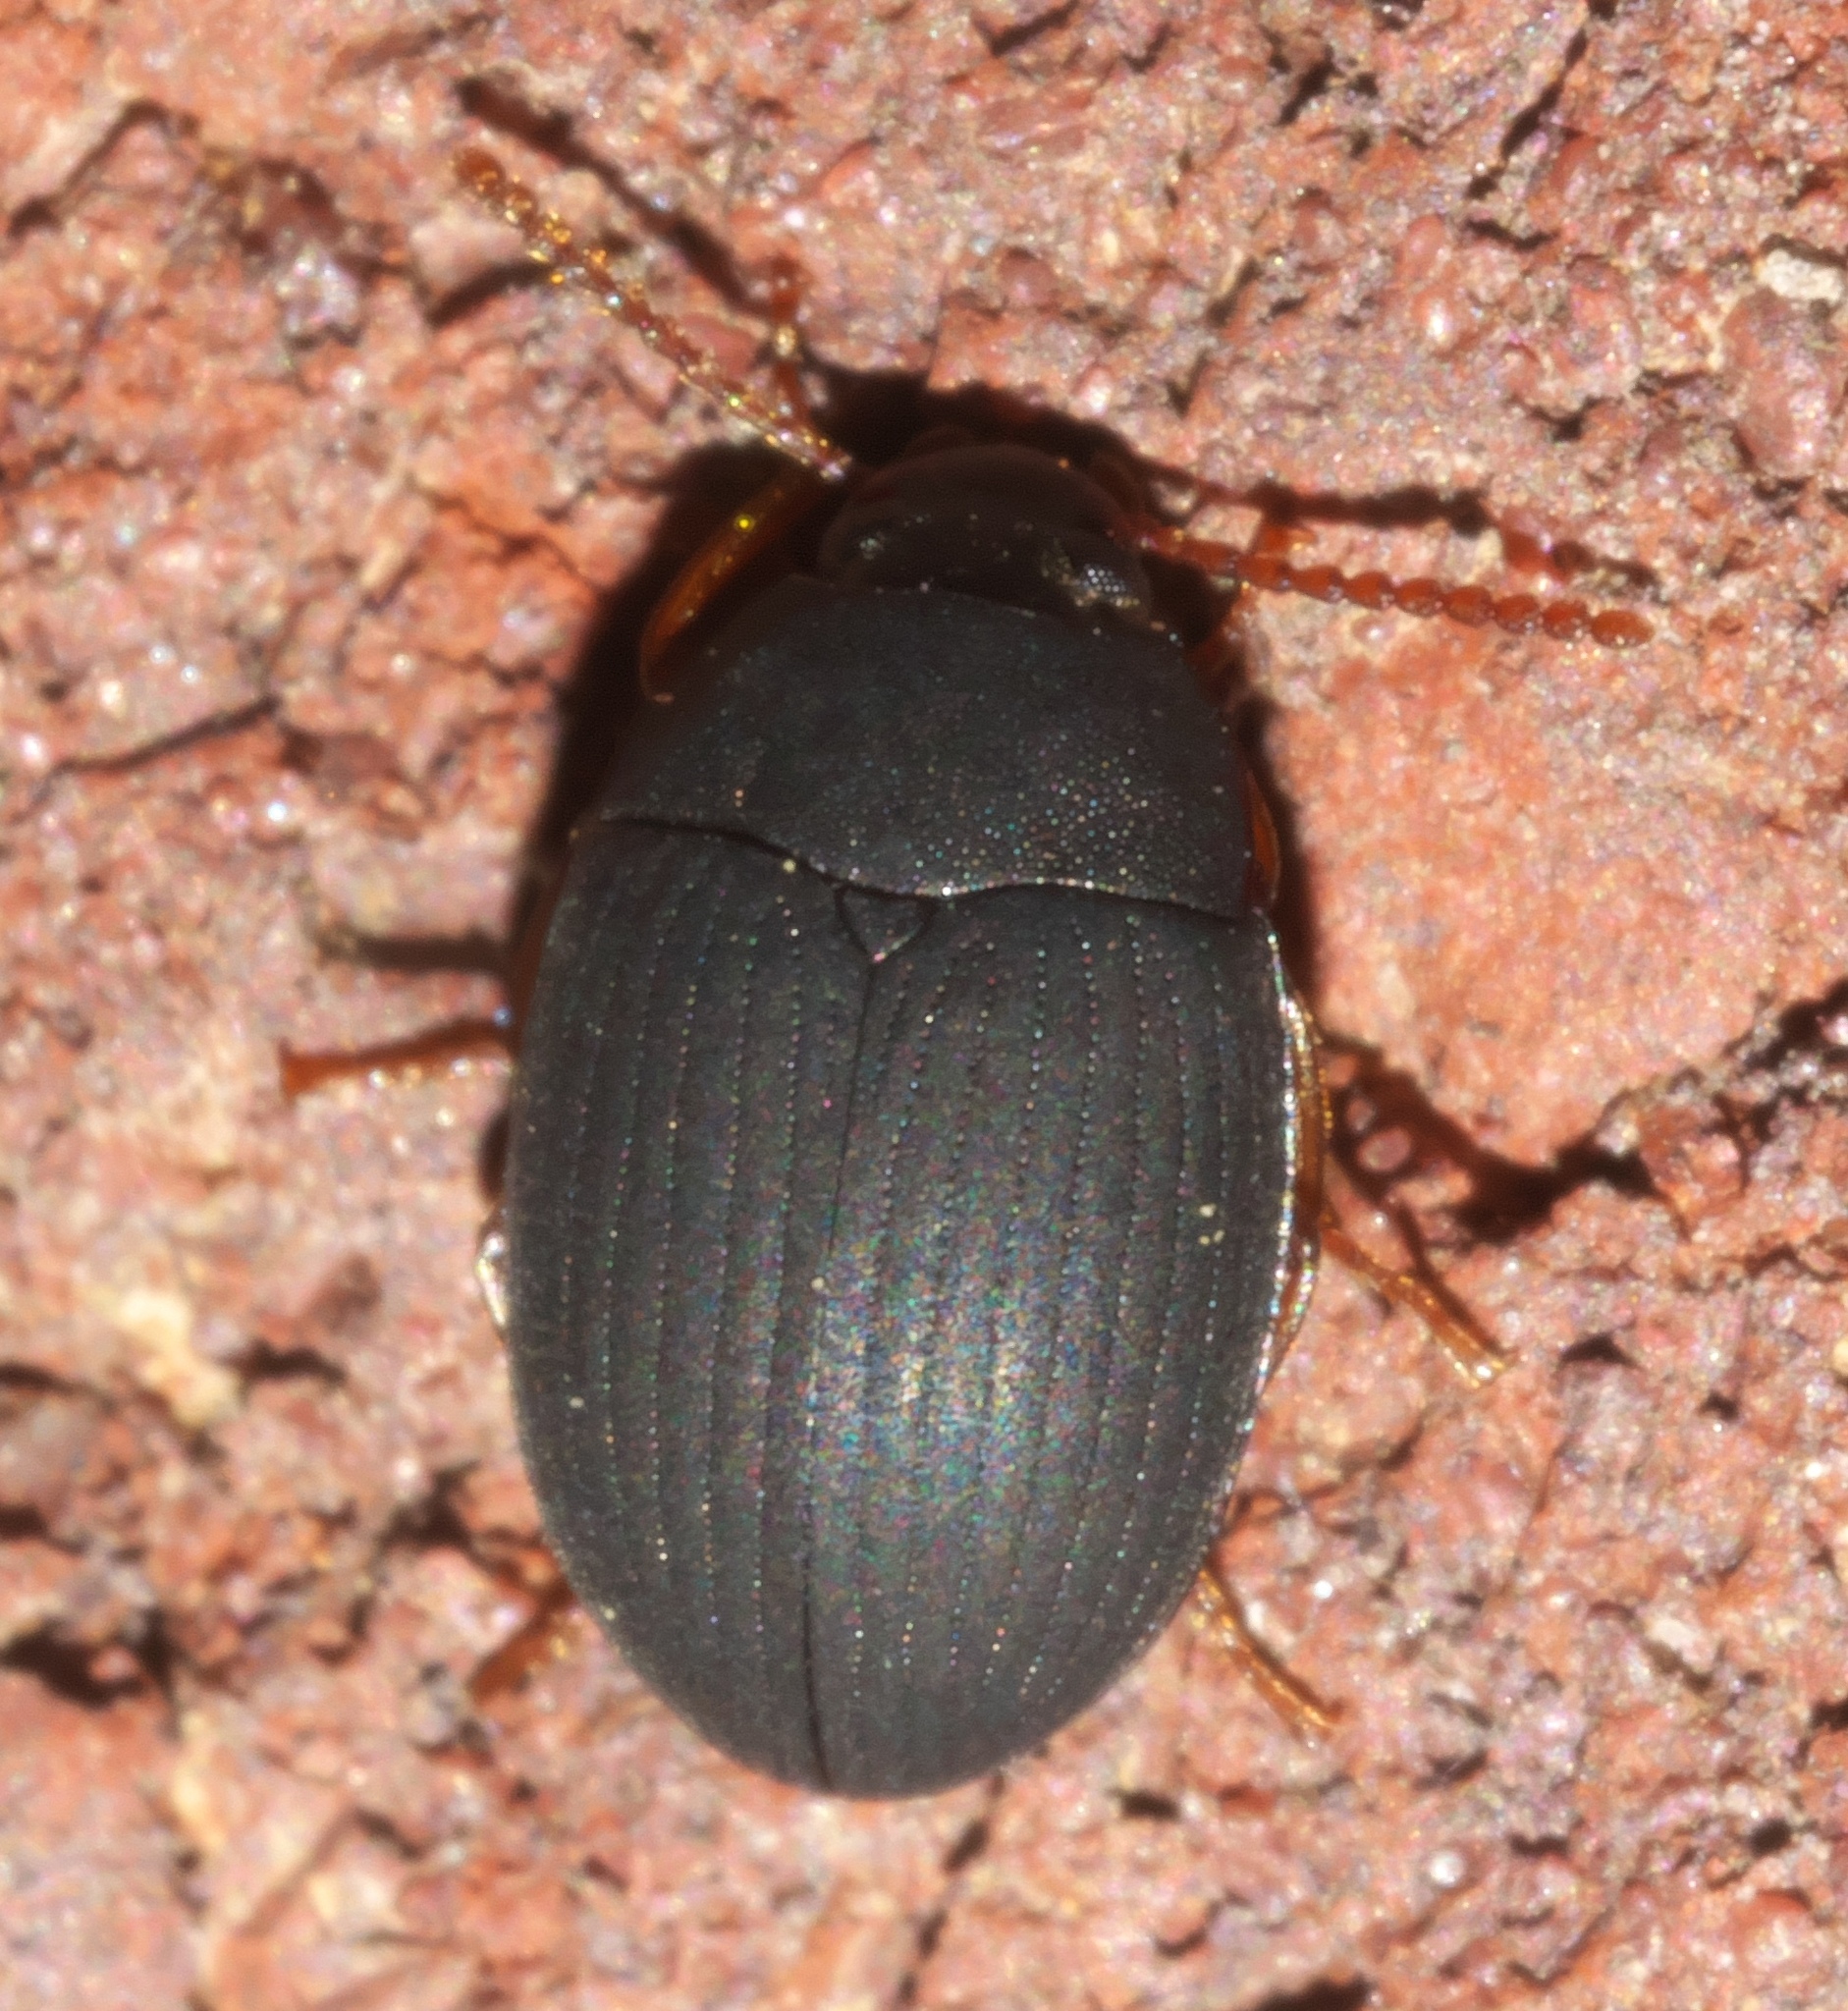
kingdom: Animalia
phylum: Arthropoda
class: Insecta
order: Coleoptera
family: Tenebrionidae
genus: Platydema
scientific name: Platydema ruficornis
